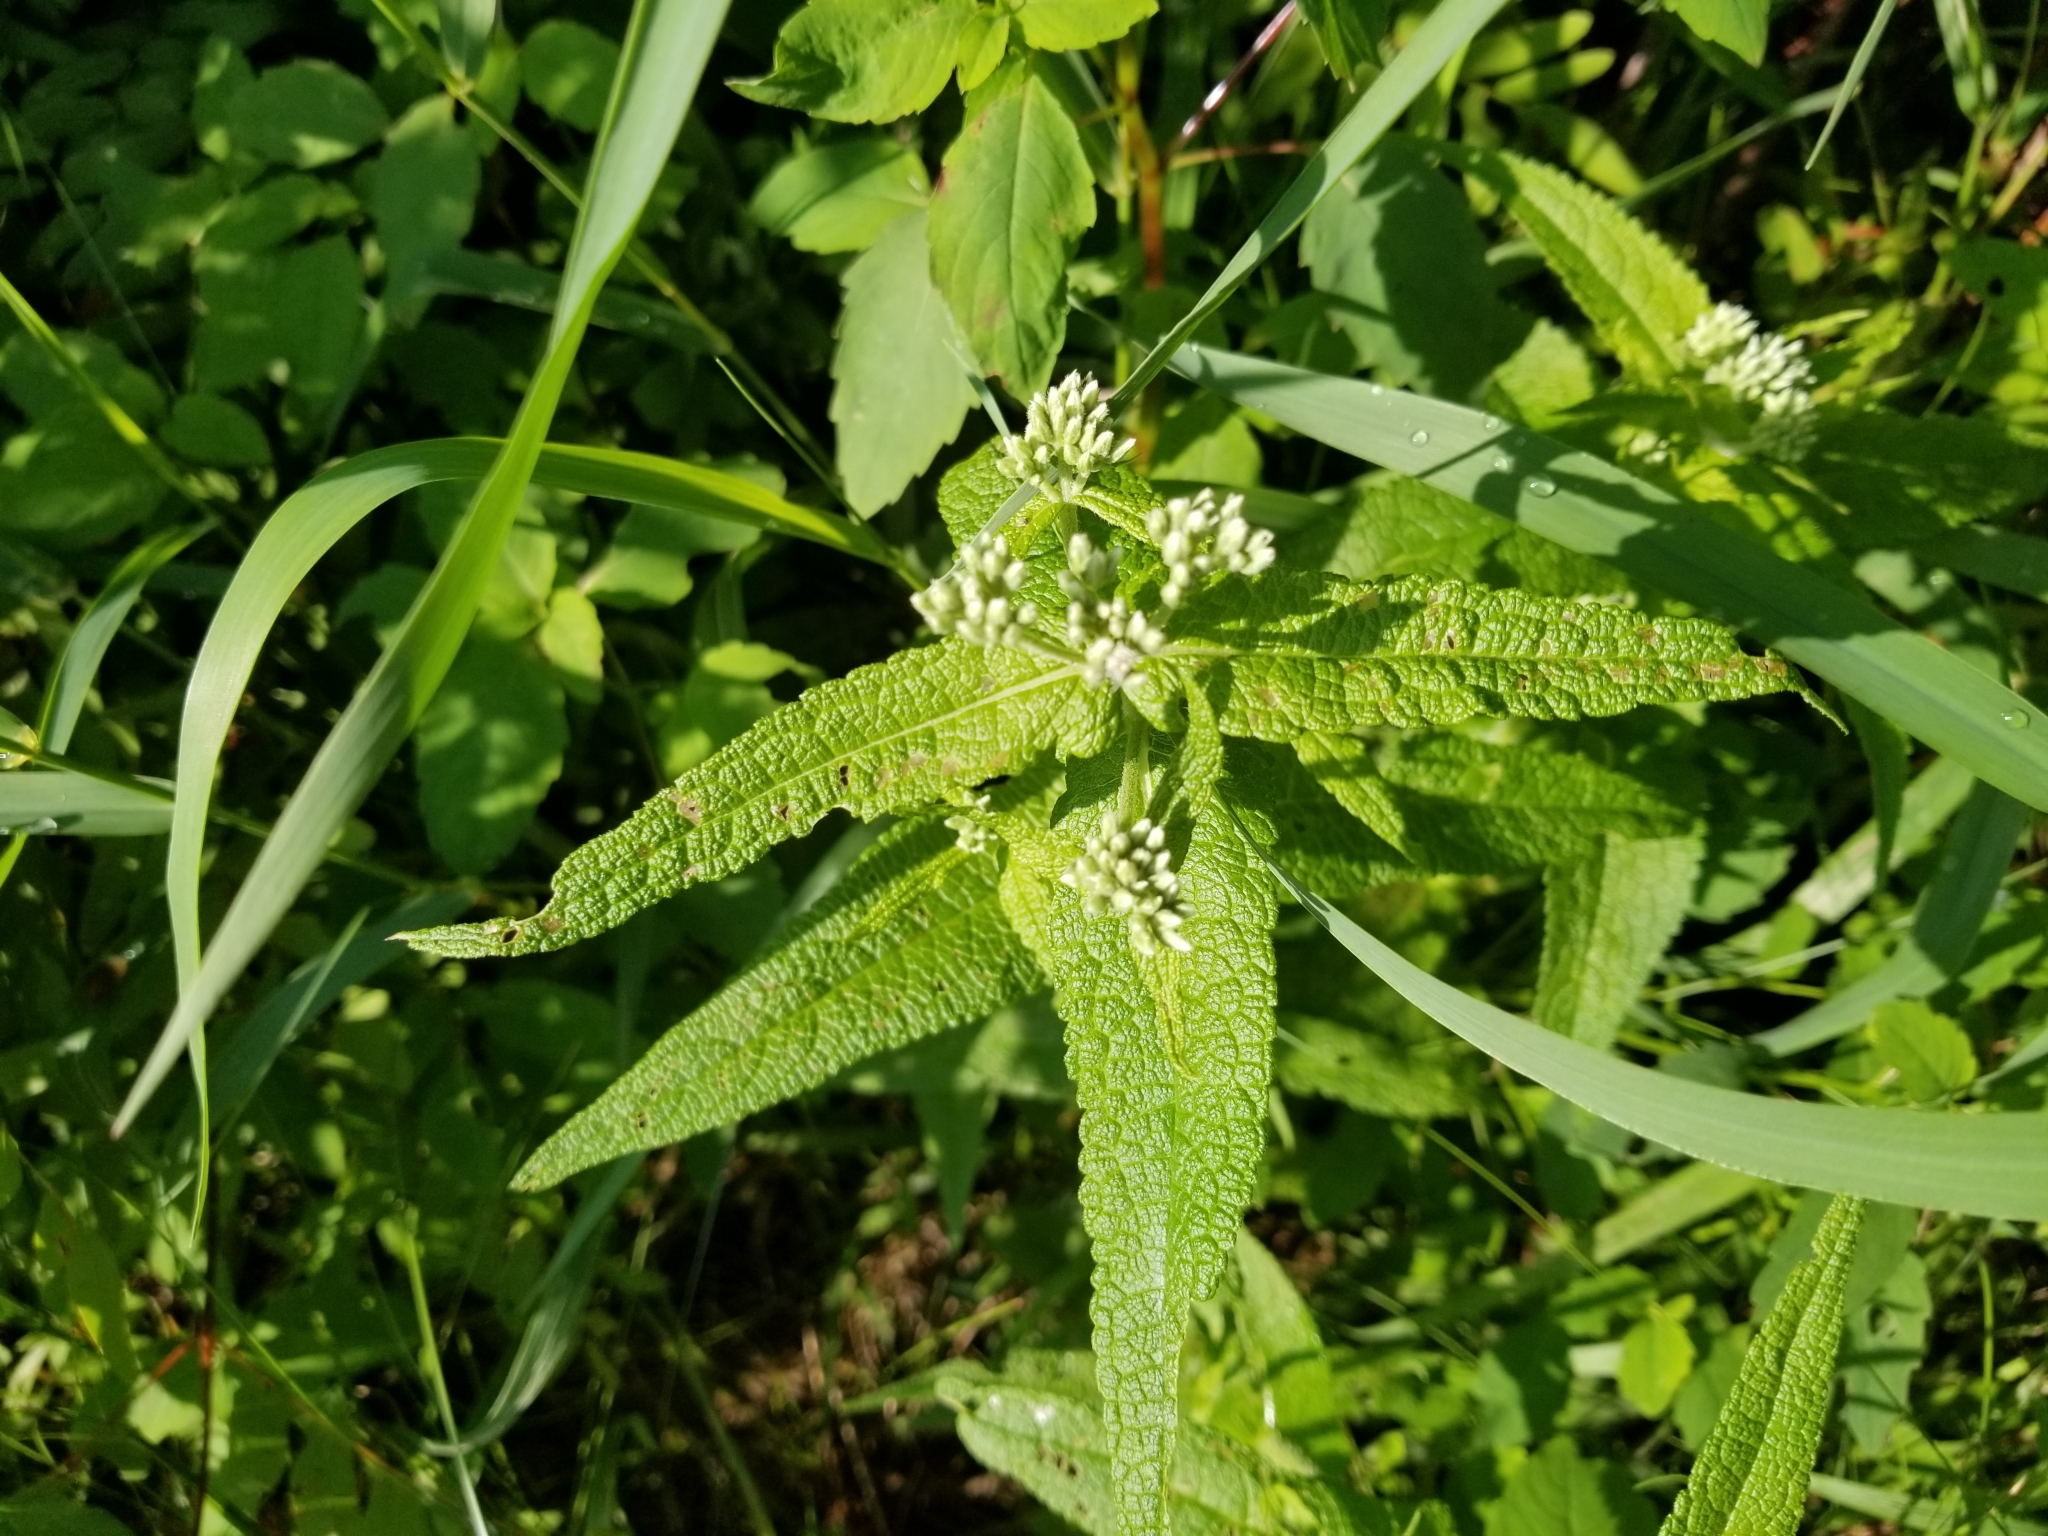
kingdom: Plantae
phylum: Tracheophyta
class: Magnoliopsida
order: Asterales
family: Asteraceae
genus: Eupatorium
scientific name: Eupatorium perfoliatum
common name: Boneset
